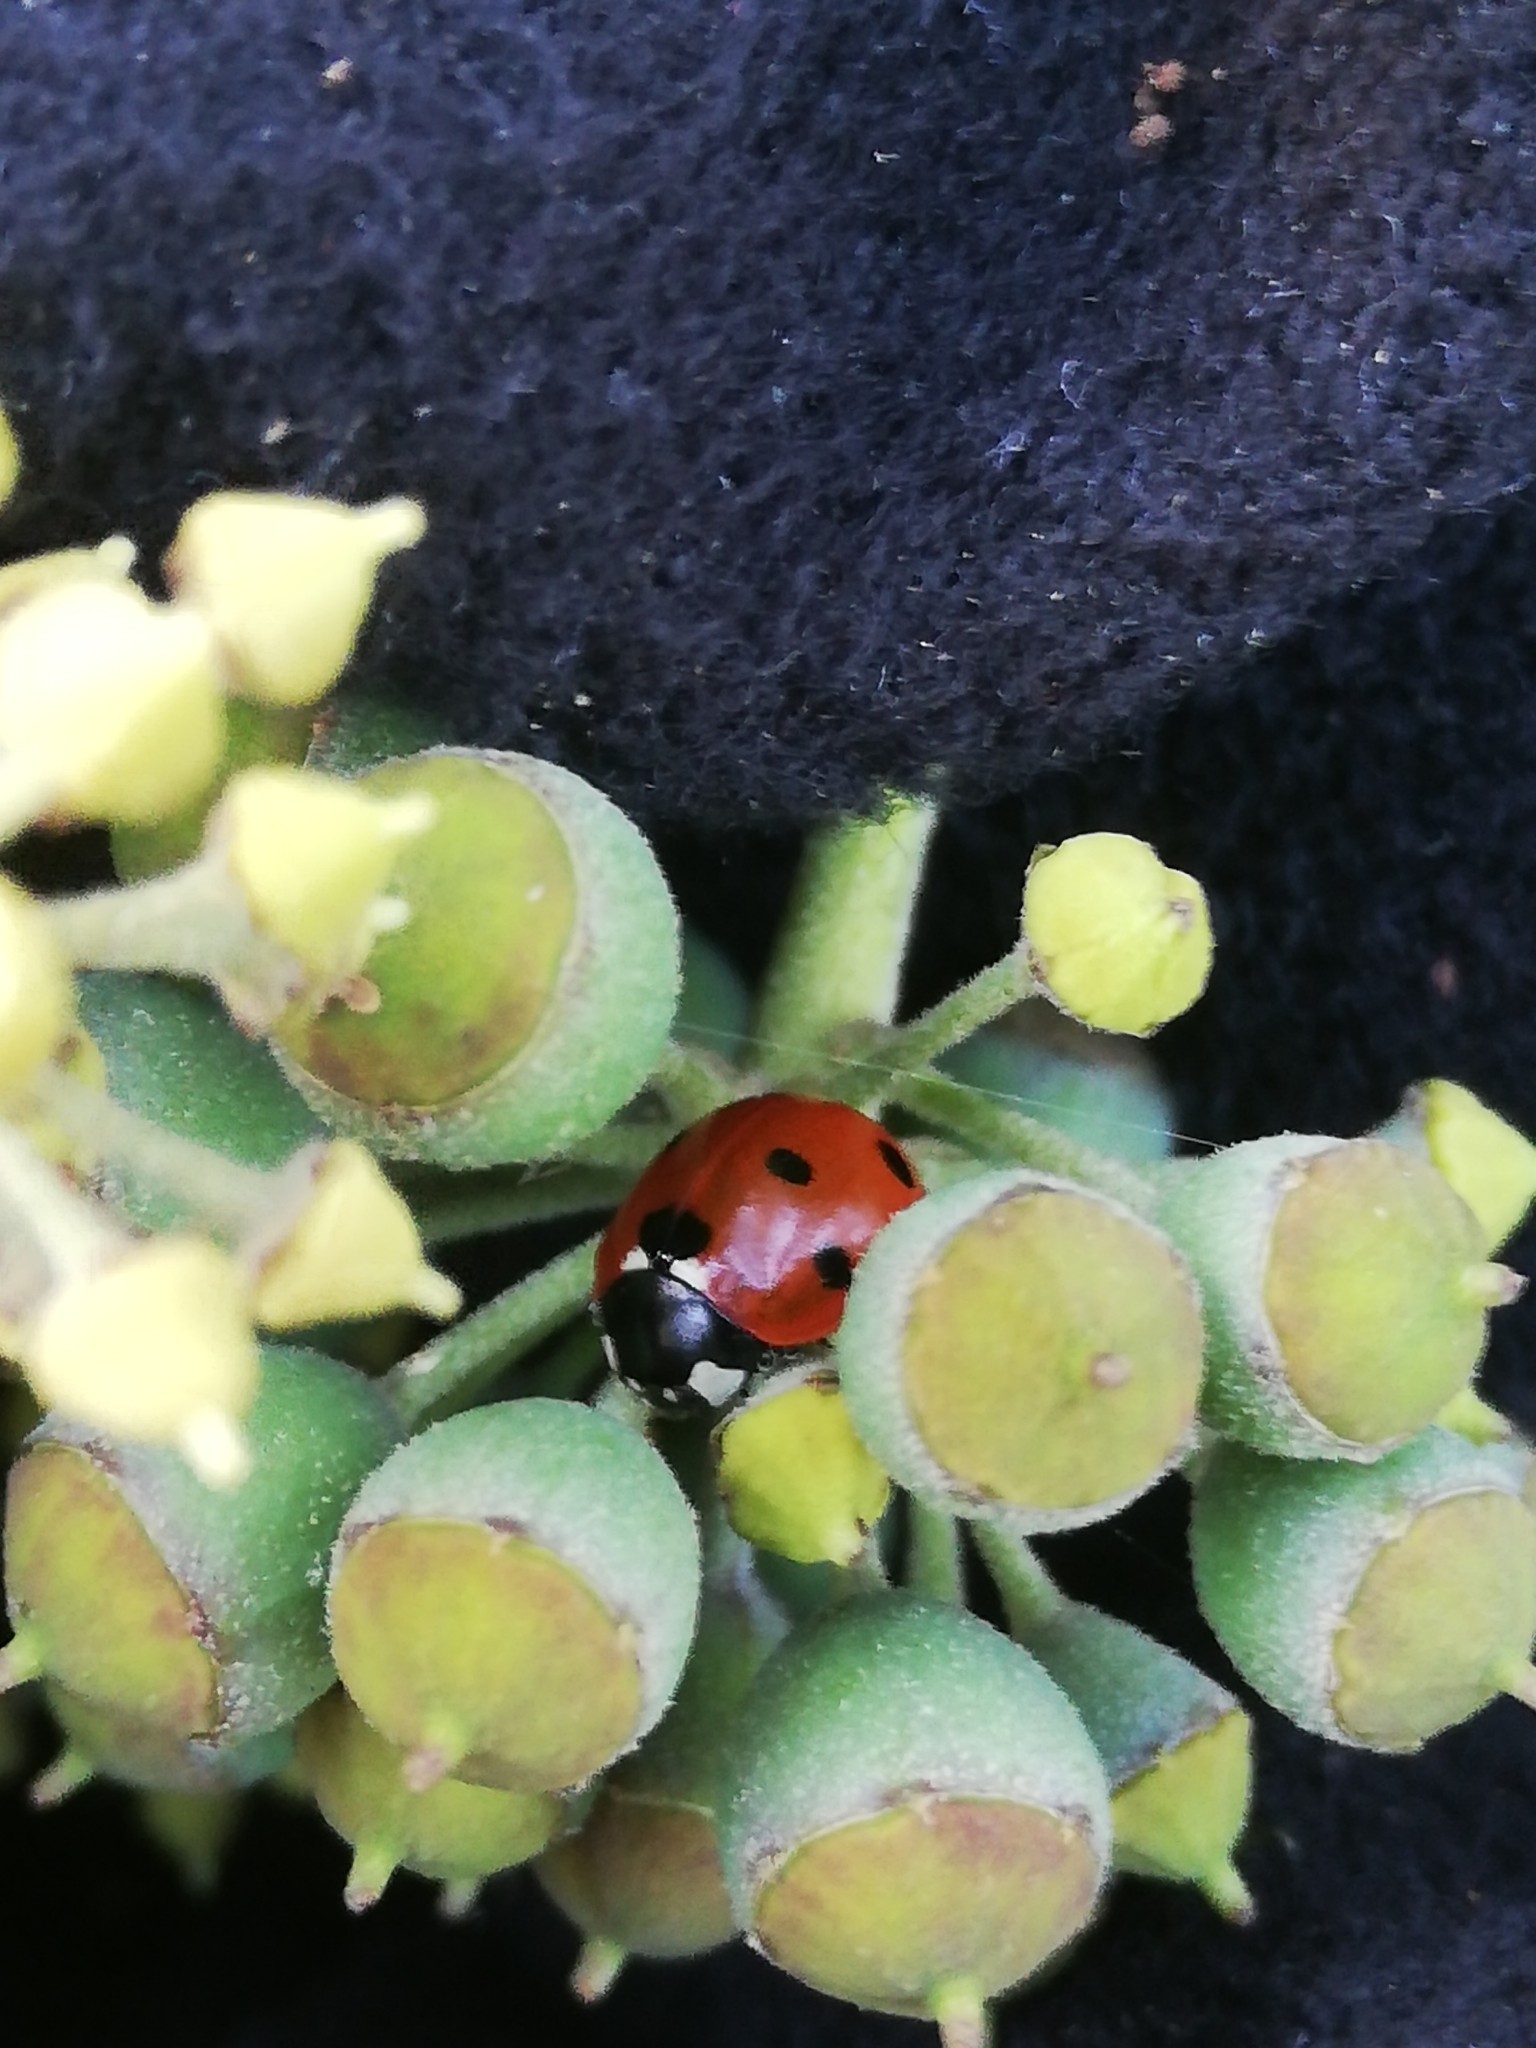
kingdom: Animalia
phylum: Arthropoda
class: Insecta
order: Coleoptera
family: Coccinellidae
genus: Coccinella
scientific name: Coccinella septempunctata
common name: Sevenspotted lady beetle
